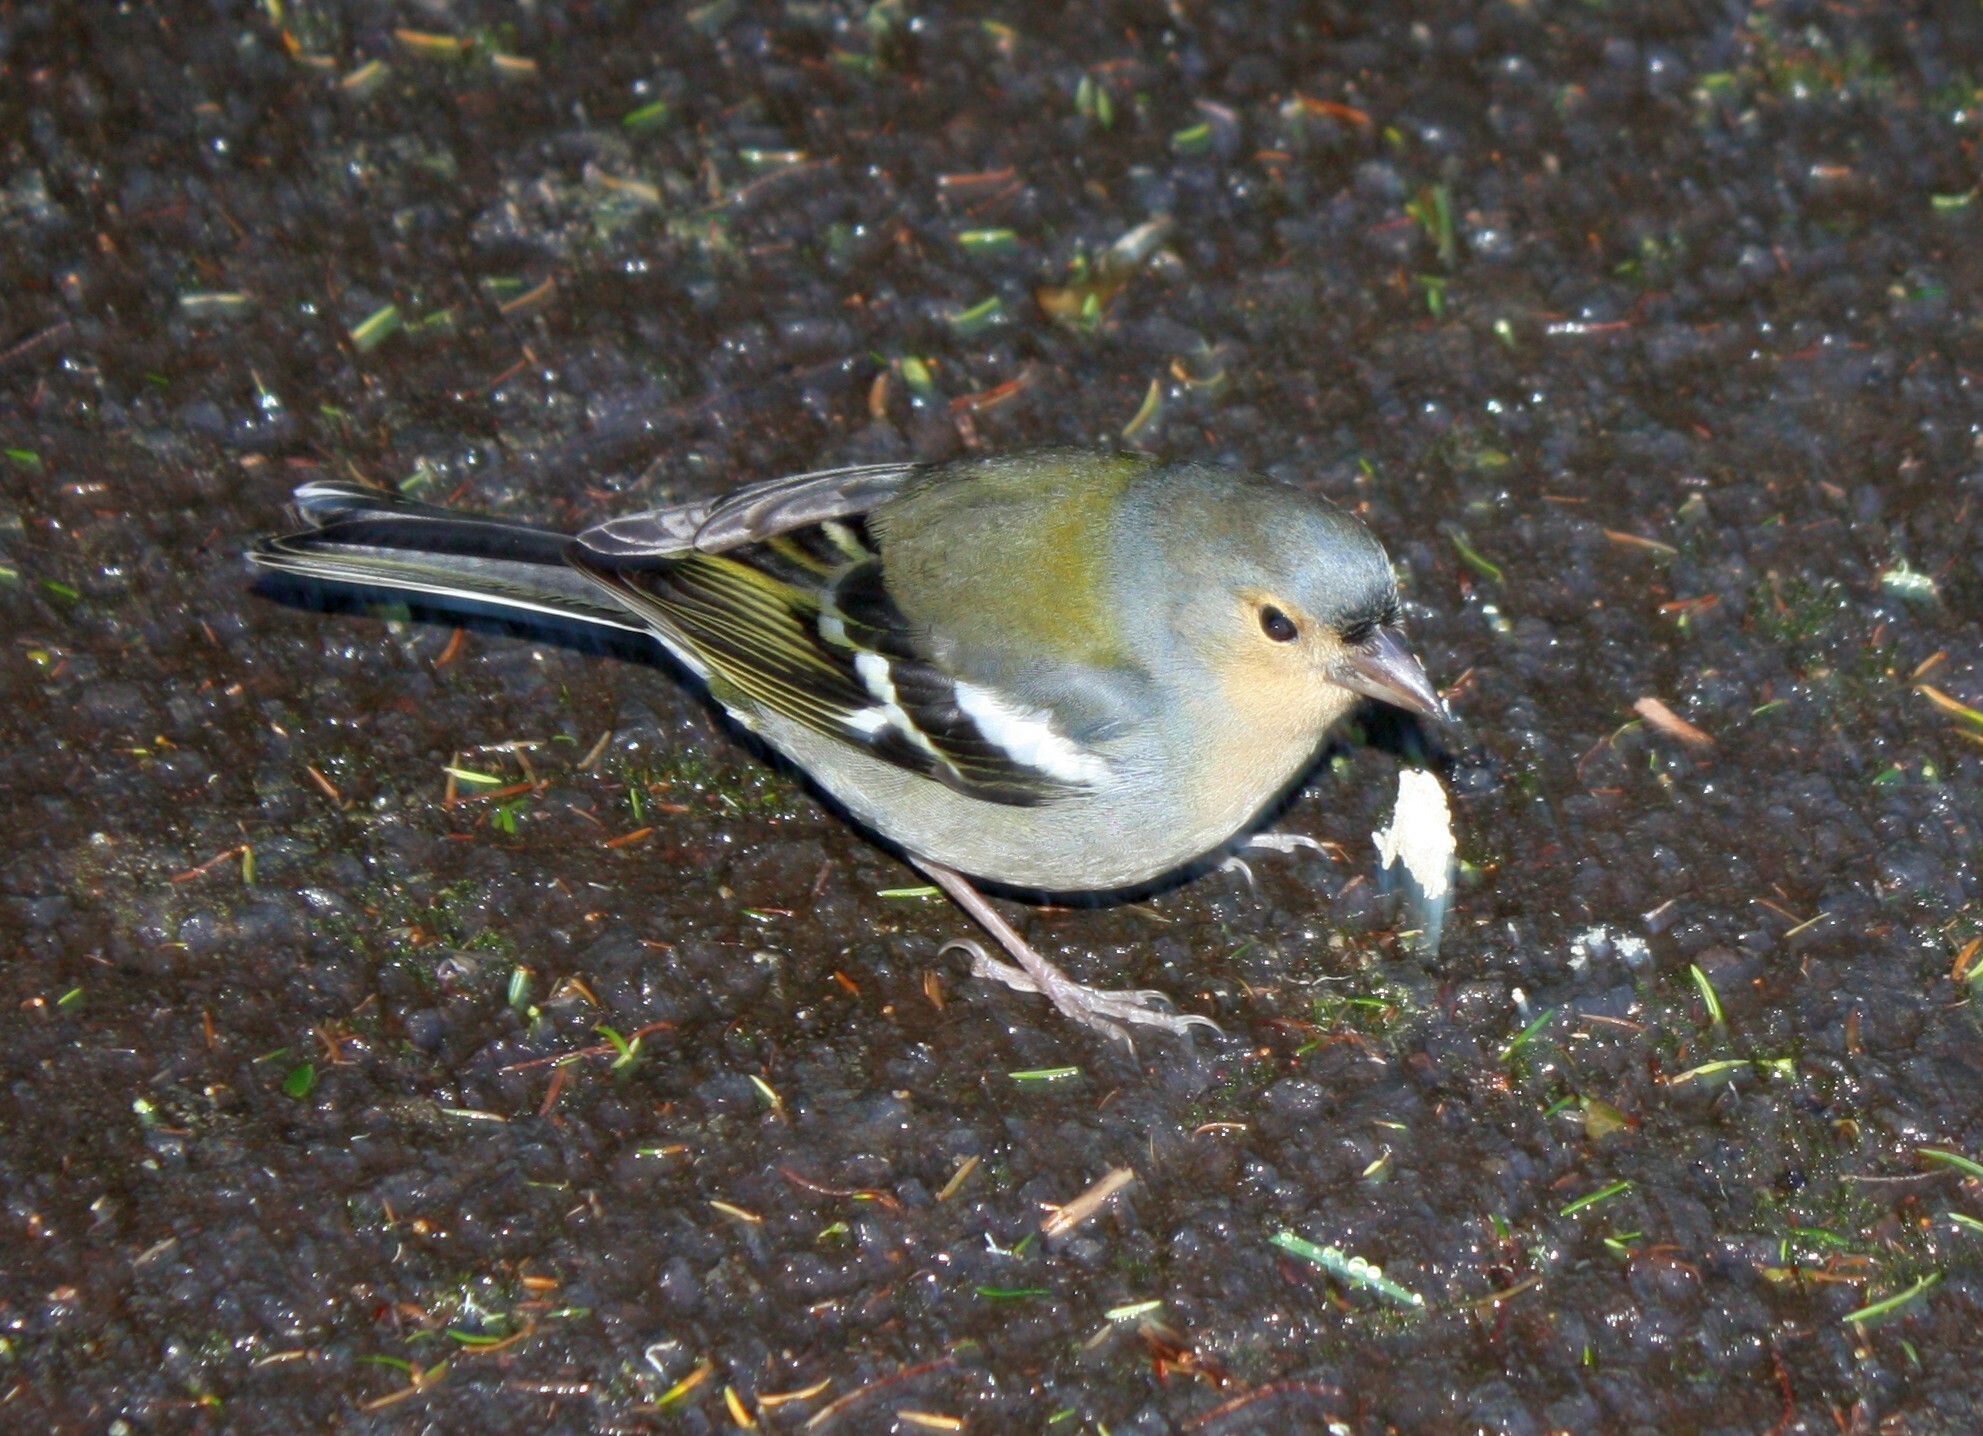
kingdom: Animalia
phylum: Chordata
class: Aves
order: Passeriformes
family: Fringillidae
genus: Fringilla
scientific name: Fringilla maderensis
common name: Madeira chaffinch
